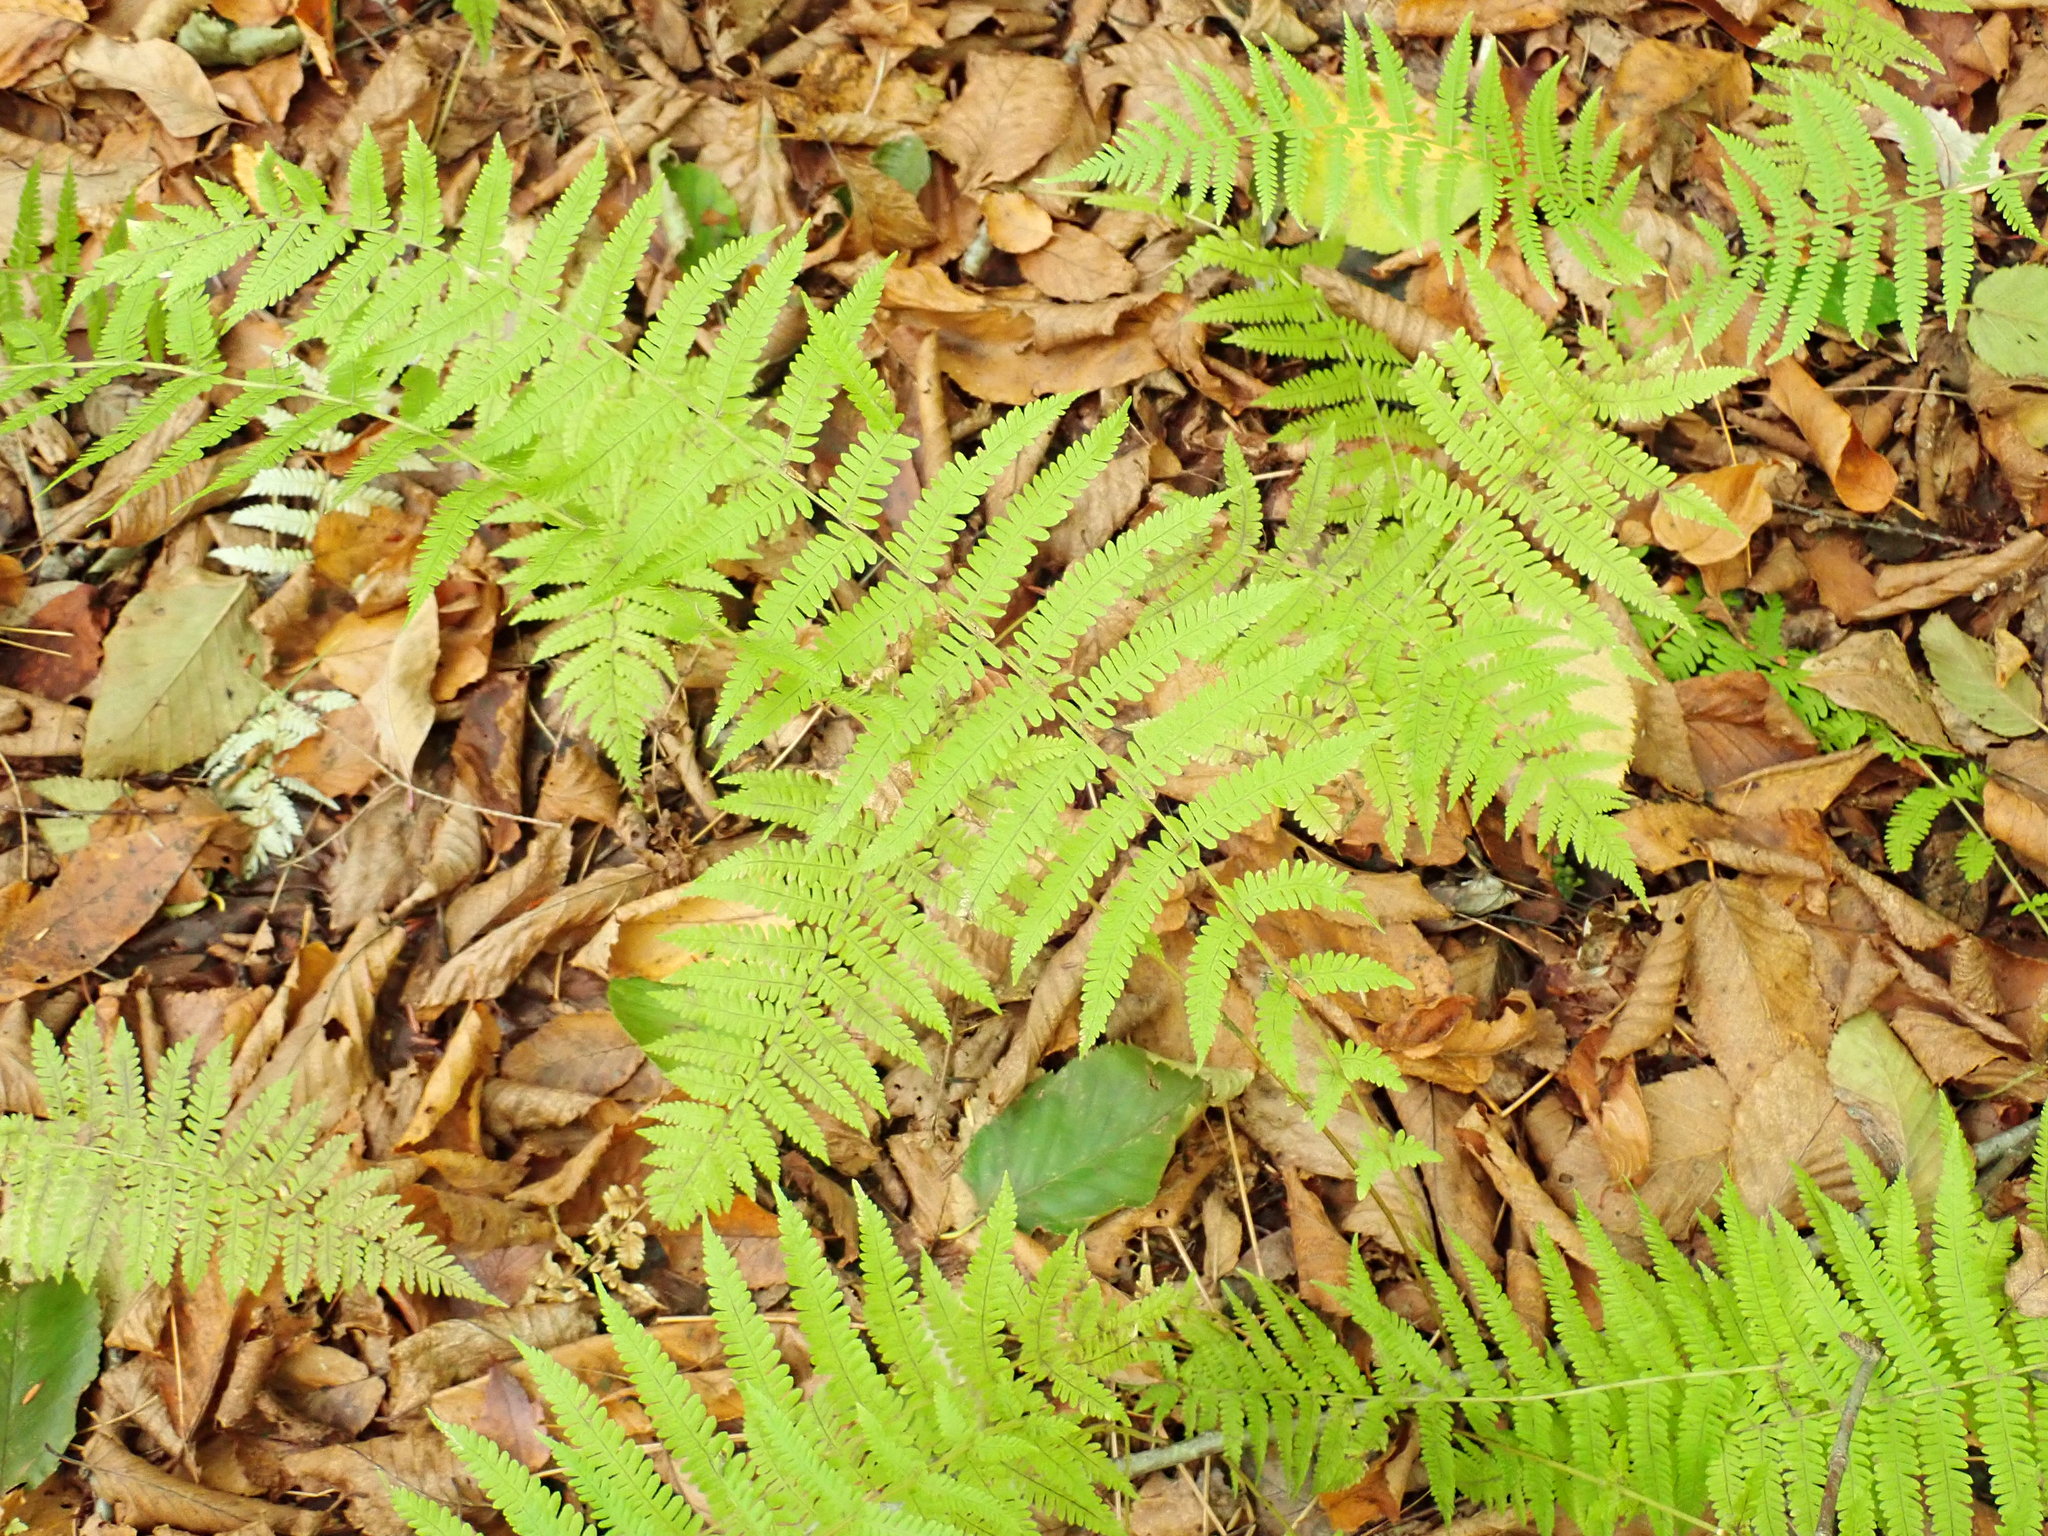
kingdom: Plantae
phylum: Tracheophyta
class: Polypodiopsida
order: Polypodiales
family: Thelypteridaceae
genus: Amauropelta
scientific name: Amauropelta noveboracensis
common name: New york fern
